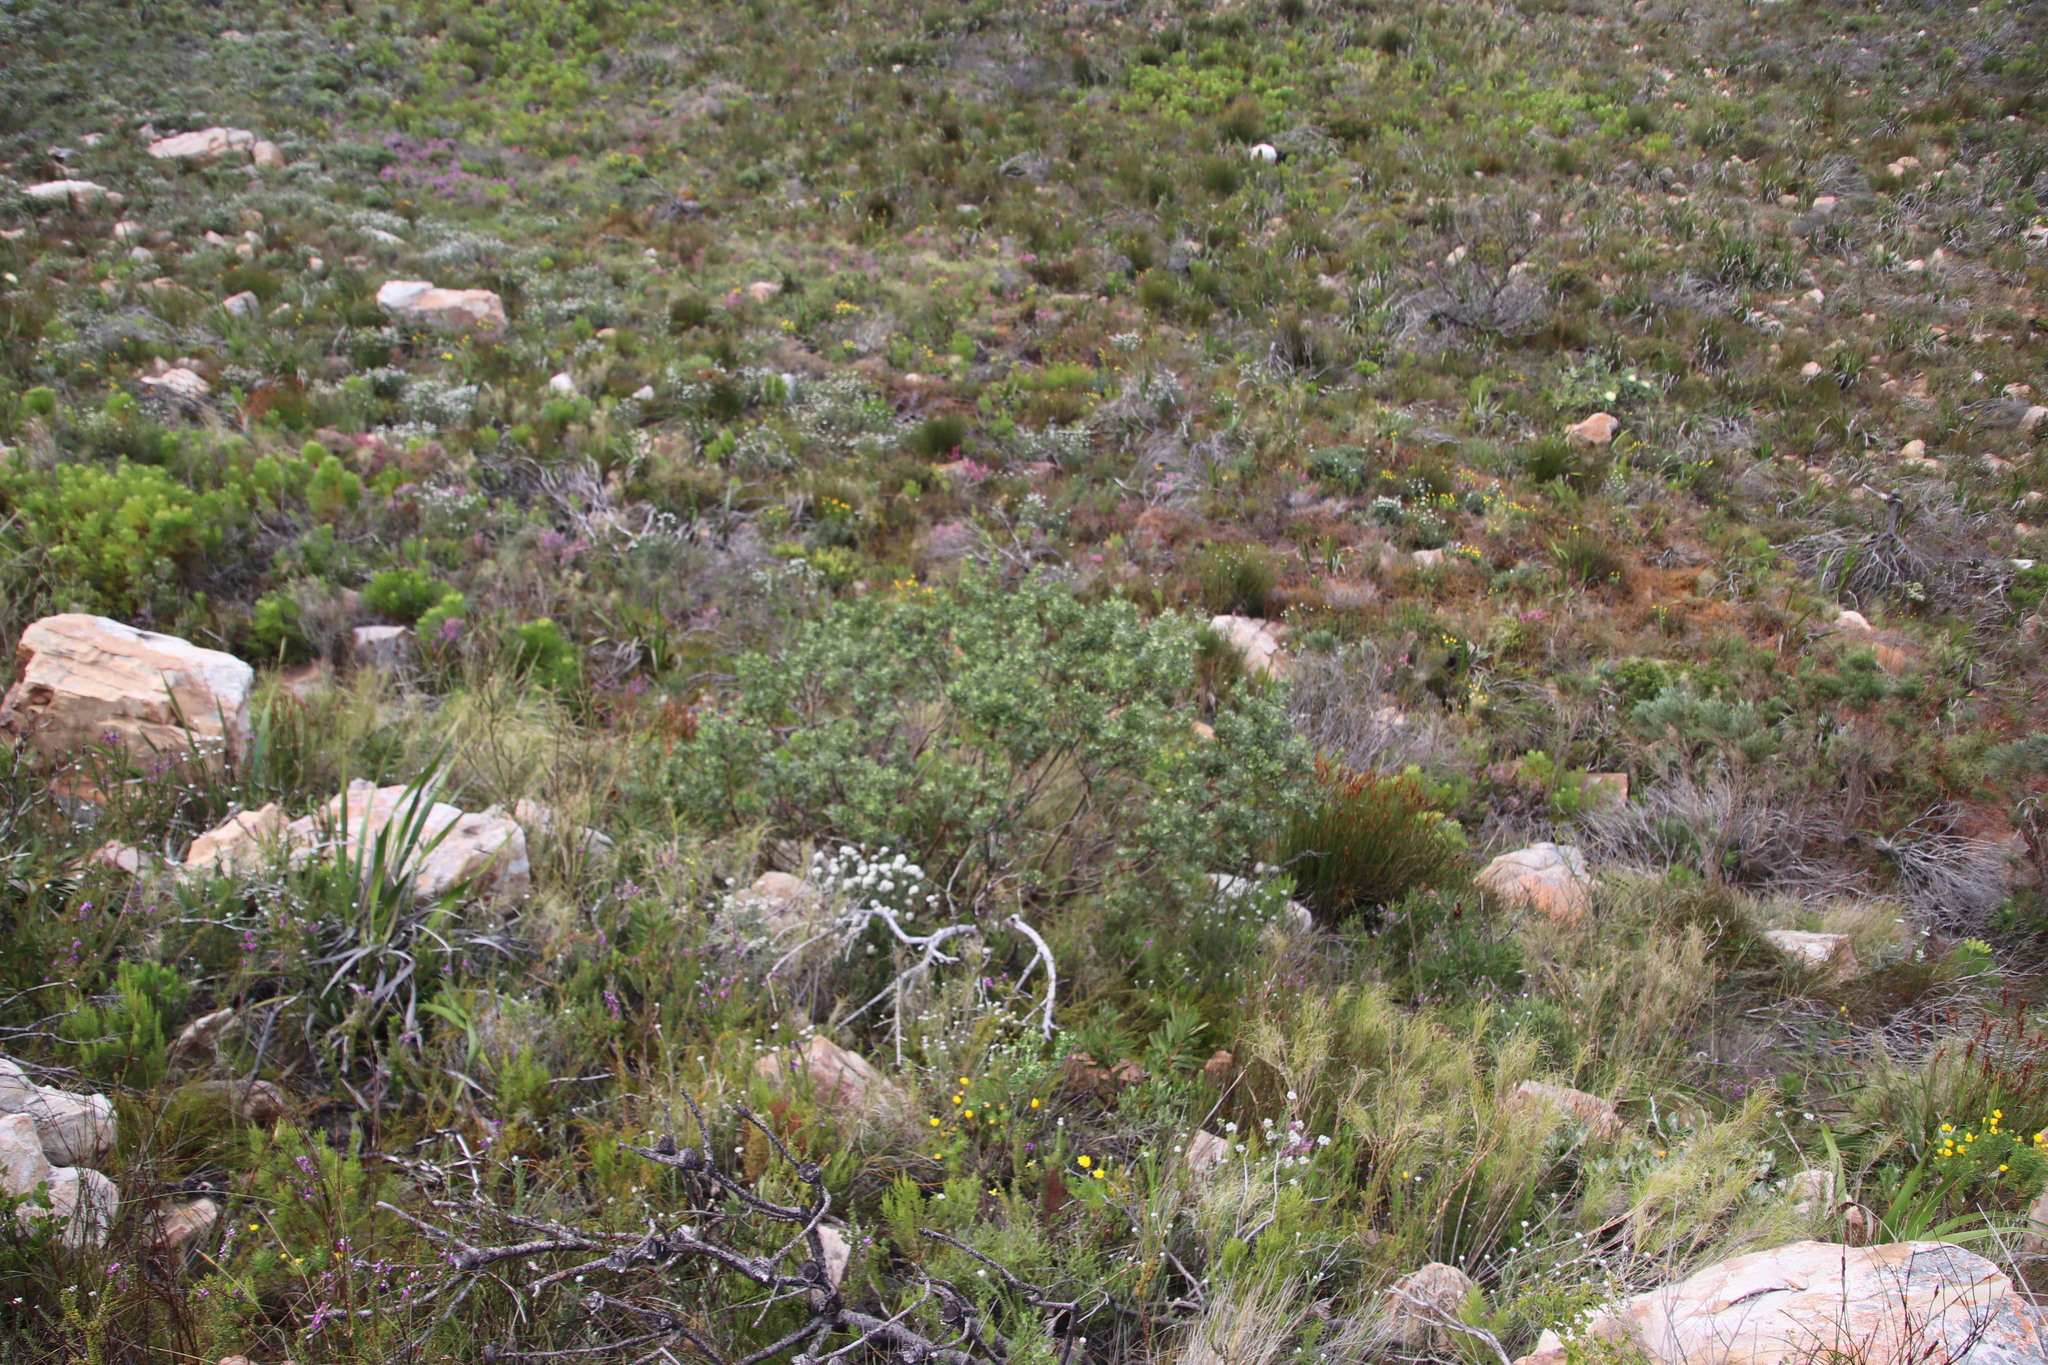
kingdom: Plantae
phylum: Tracheophyta
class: Magnoliopsida
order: Fabales
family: Fabaceae
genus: Podalyria
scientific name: Podalyria calyptrata
